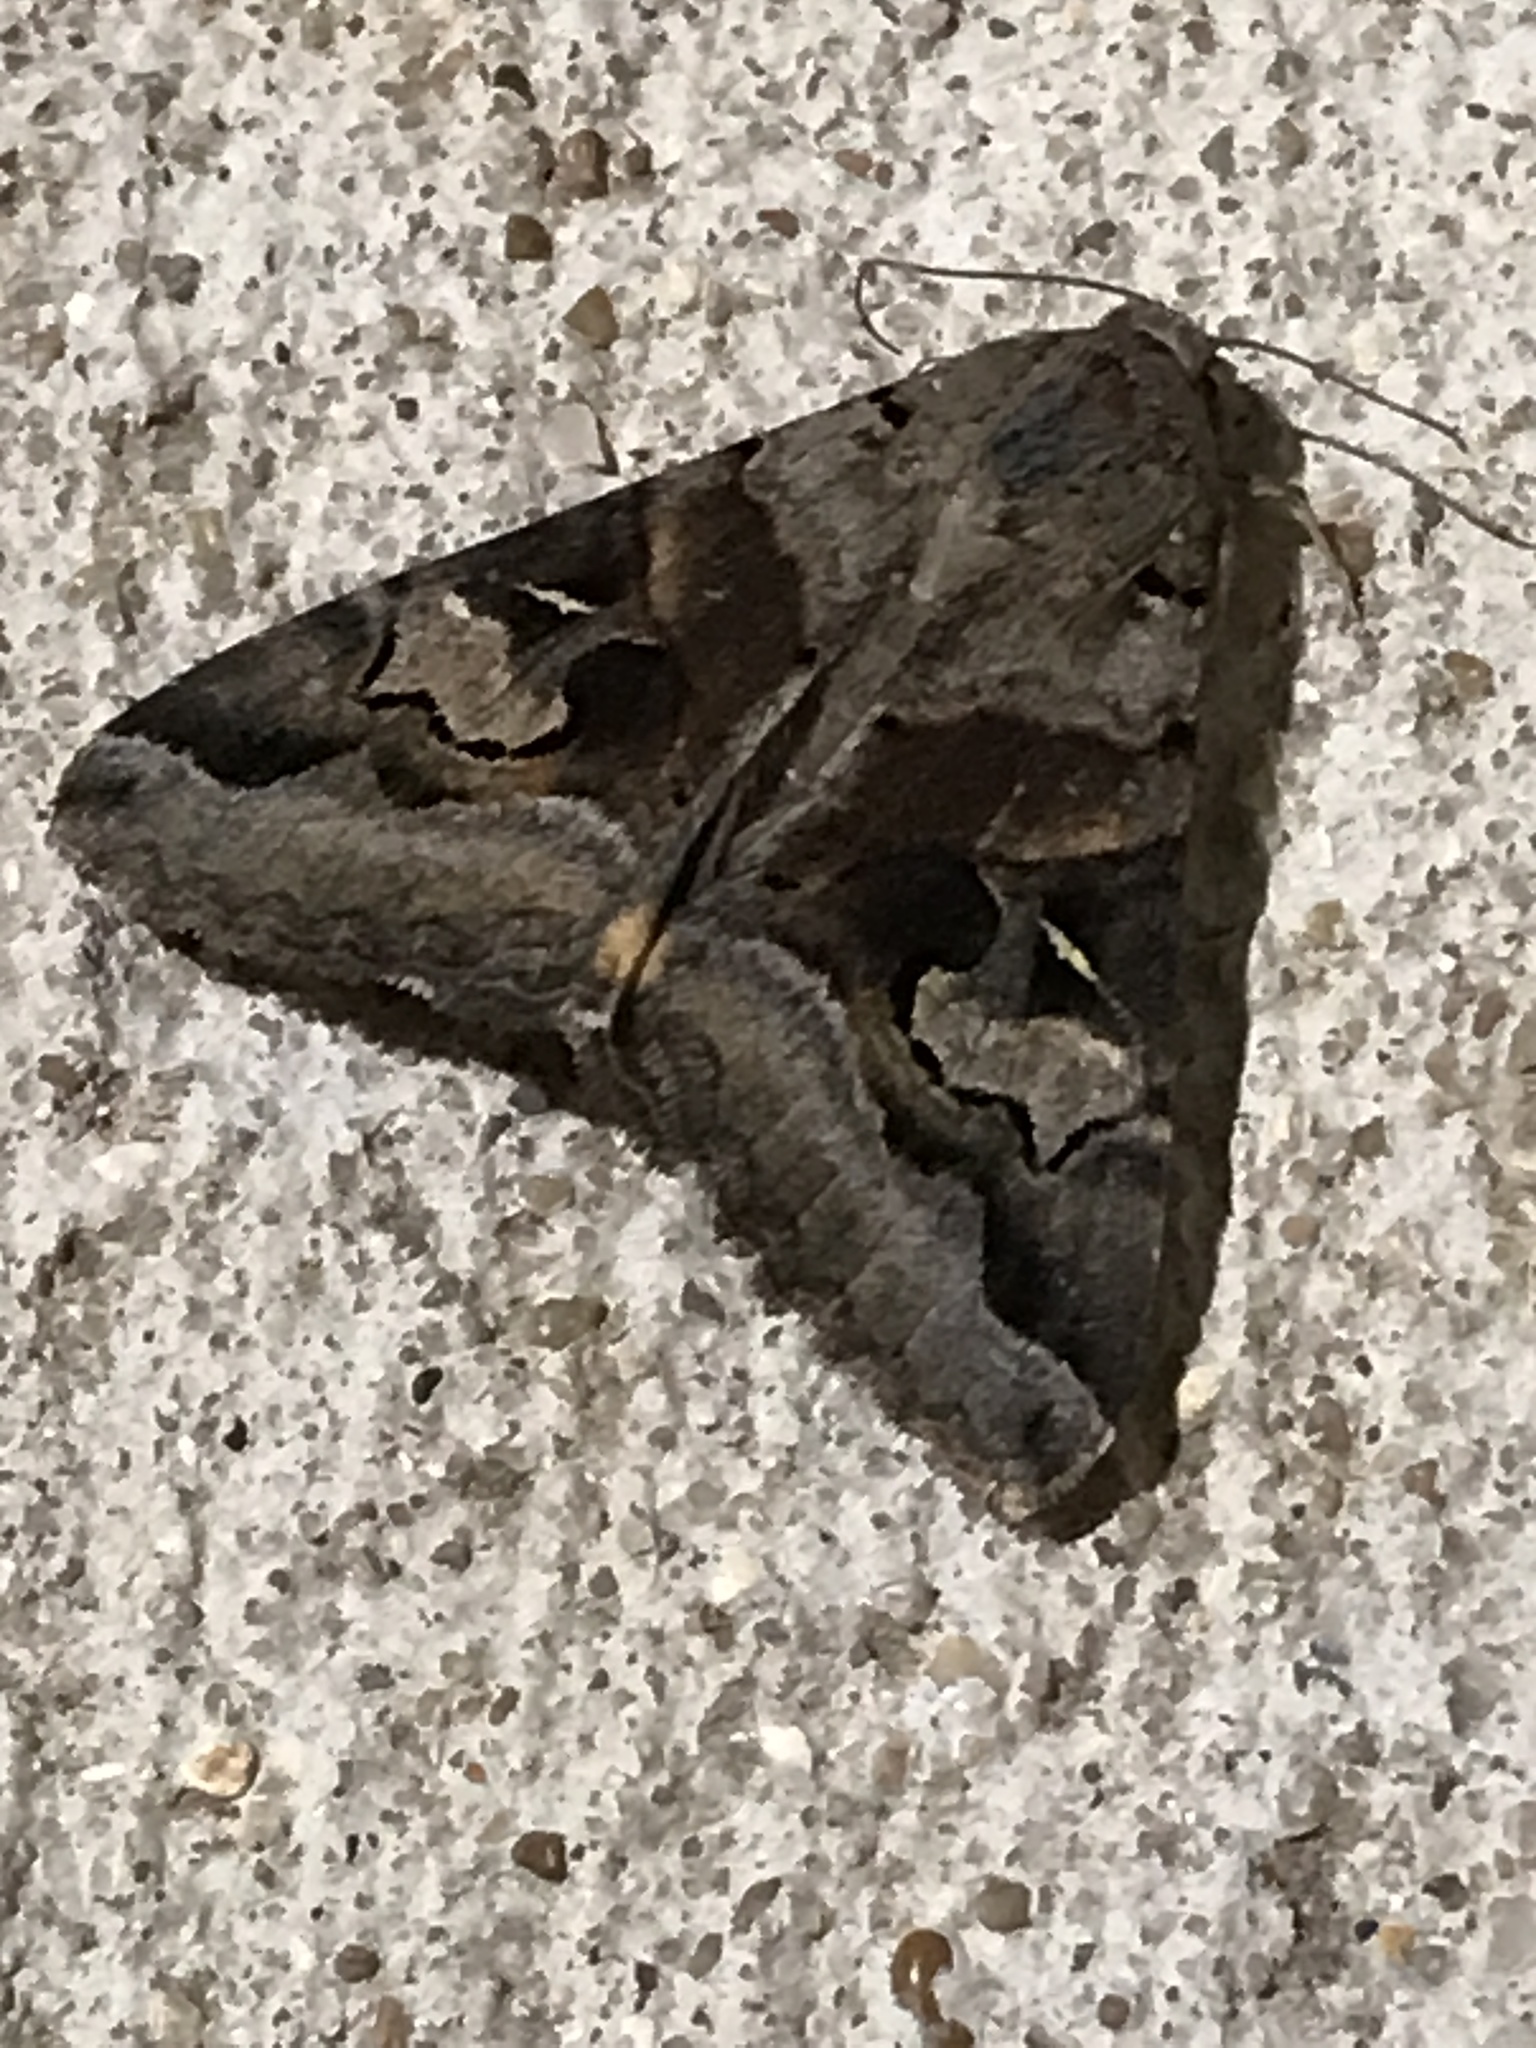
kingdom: Animalia
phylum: Arthropoda
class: Insecta
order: Lepidoptera
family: Erebidae
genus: Melipotis
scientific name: Melipotis indomita
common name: Moth
